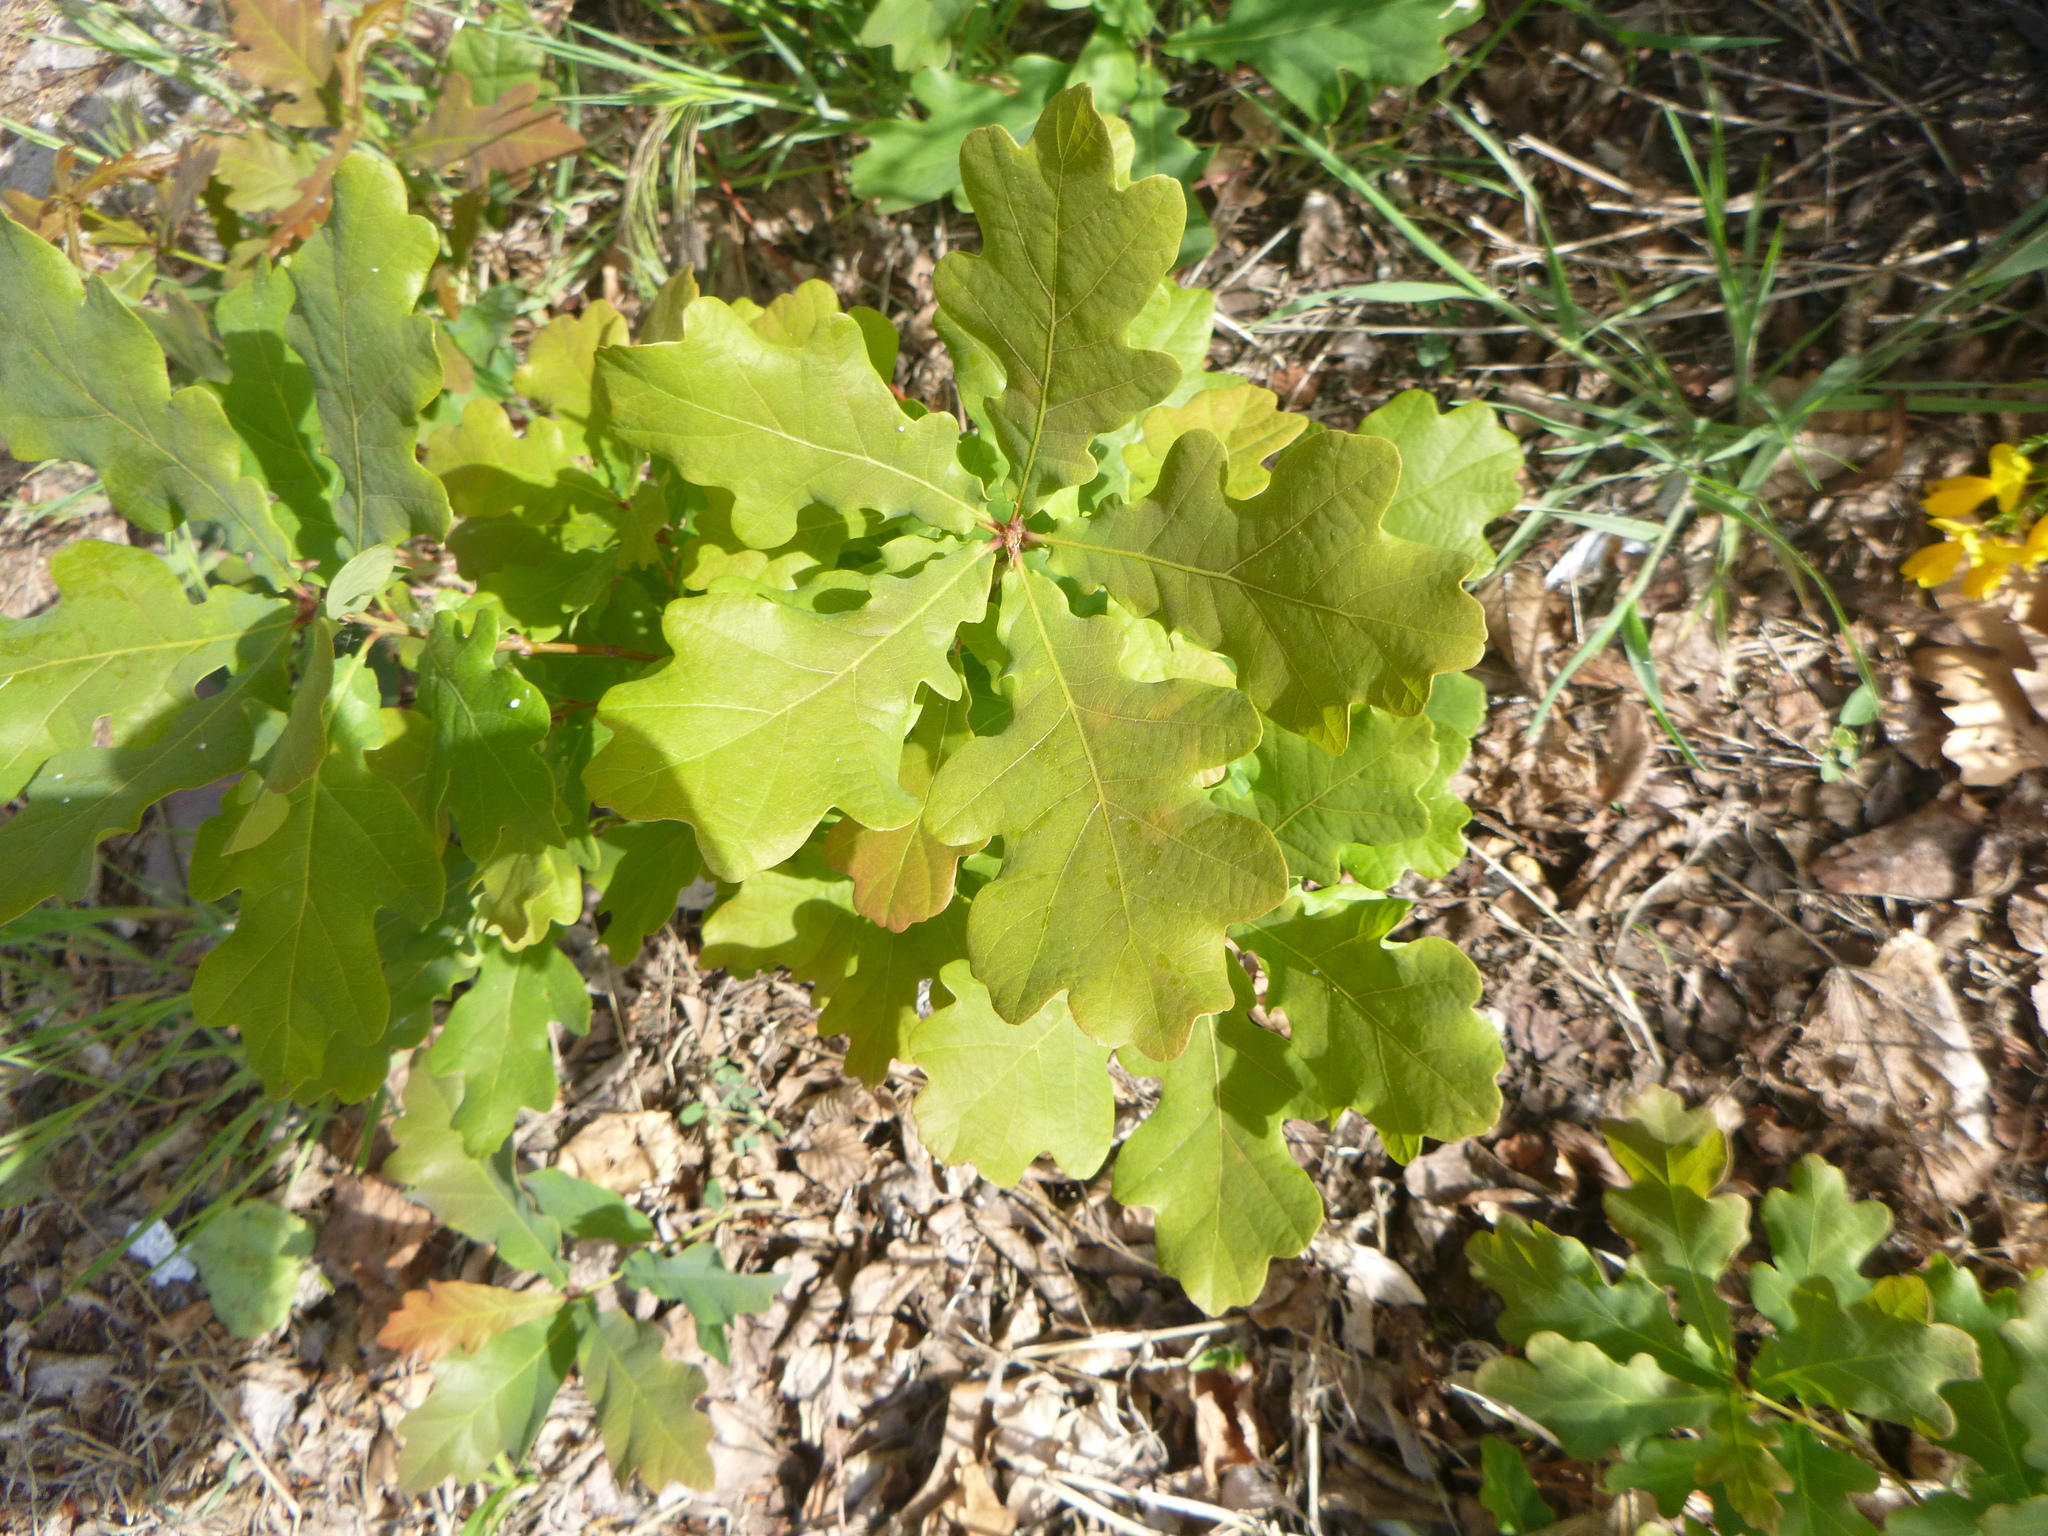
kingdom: Plantae
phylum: Tracheophyta
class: Magnoliopsida
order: Fagales
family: Fagaceae
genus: Quercus
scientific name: Quercus robur
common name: Pedunculate oak
